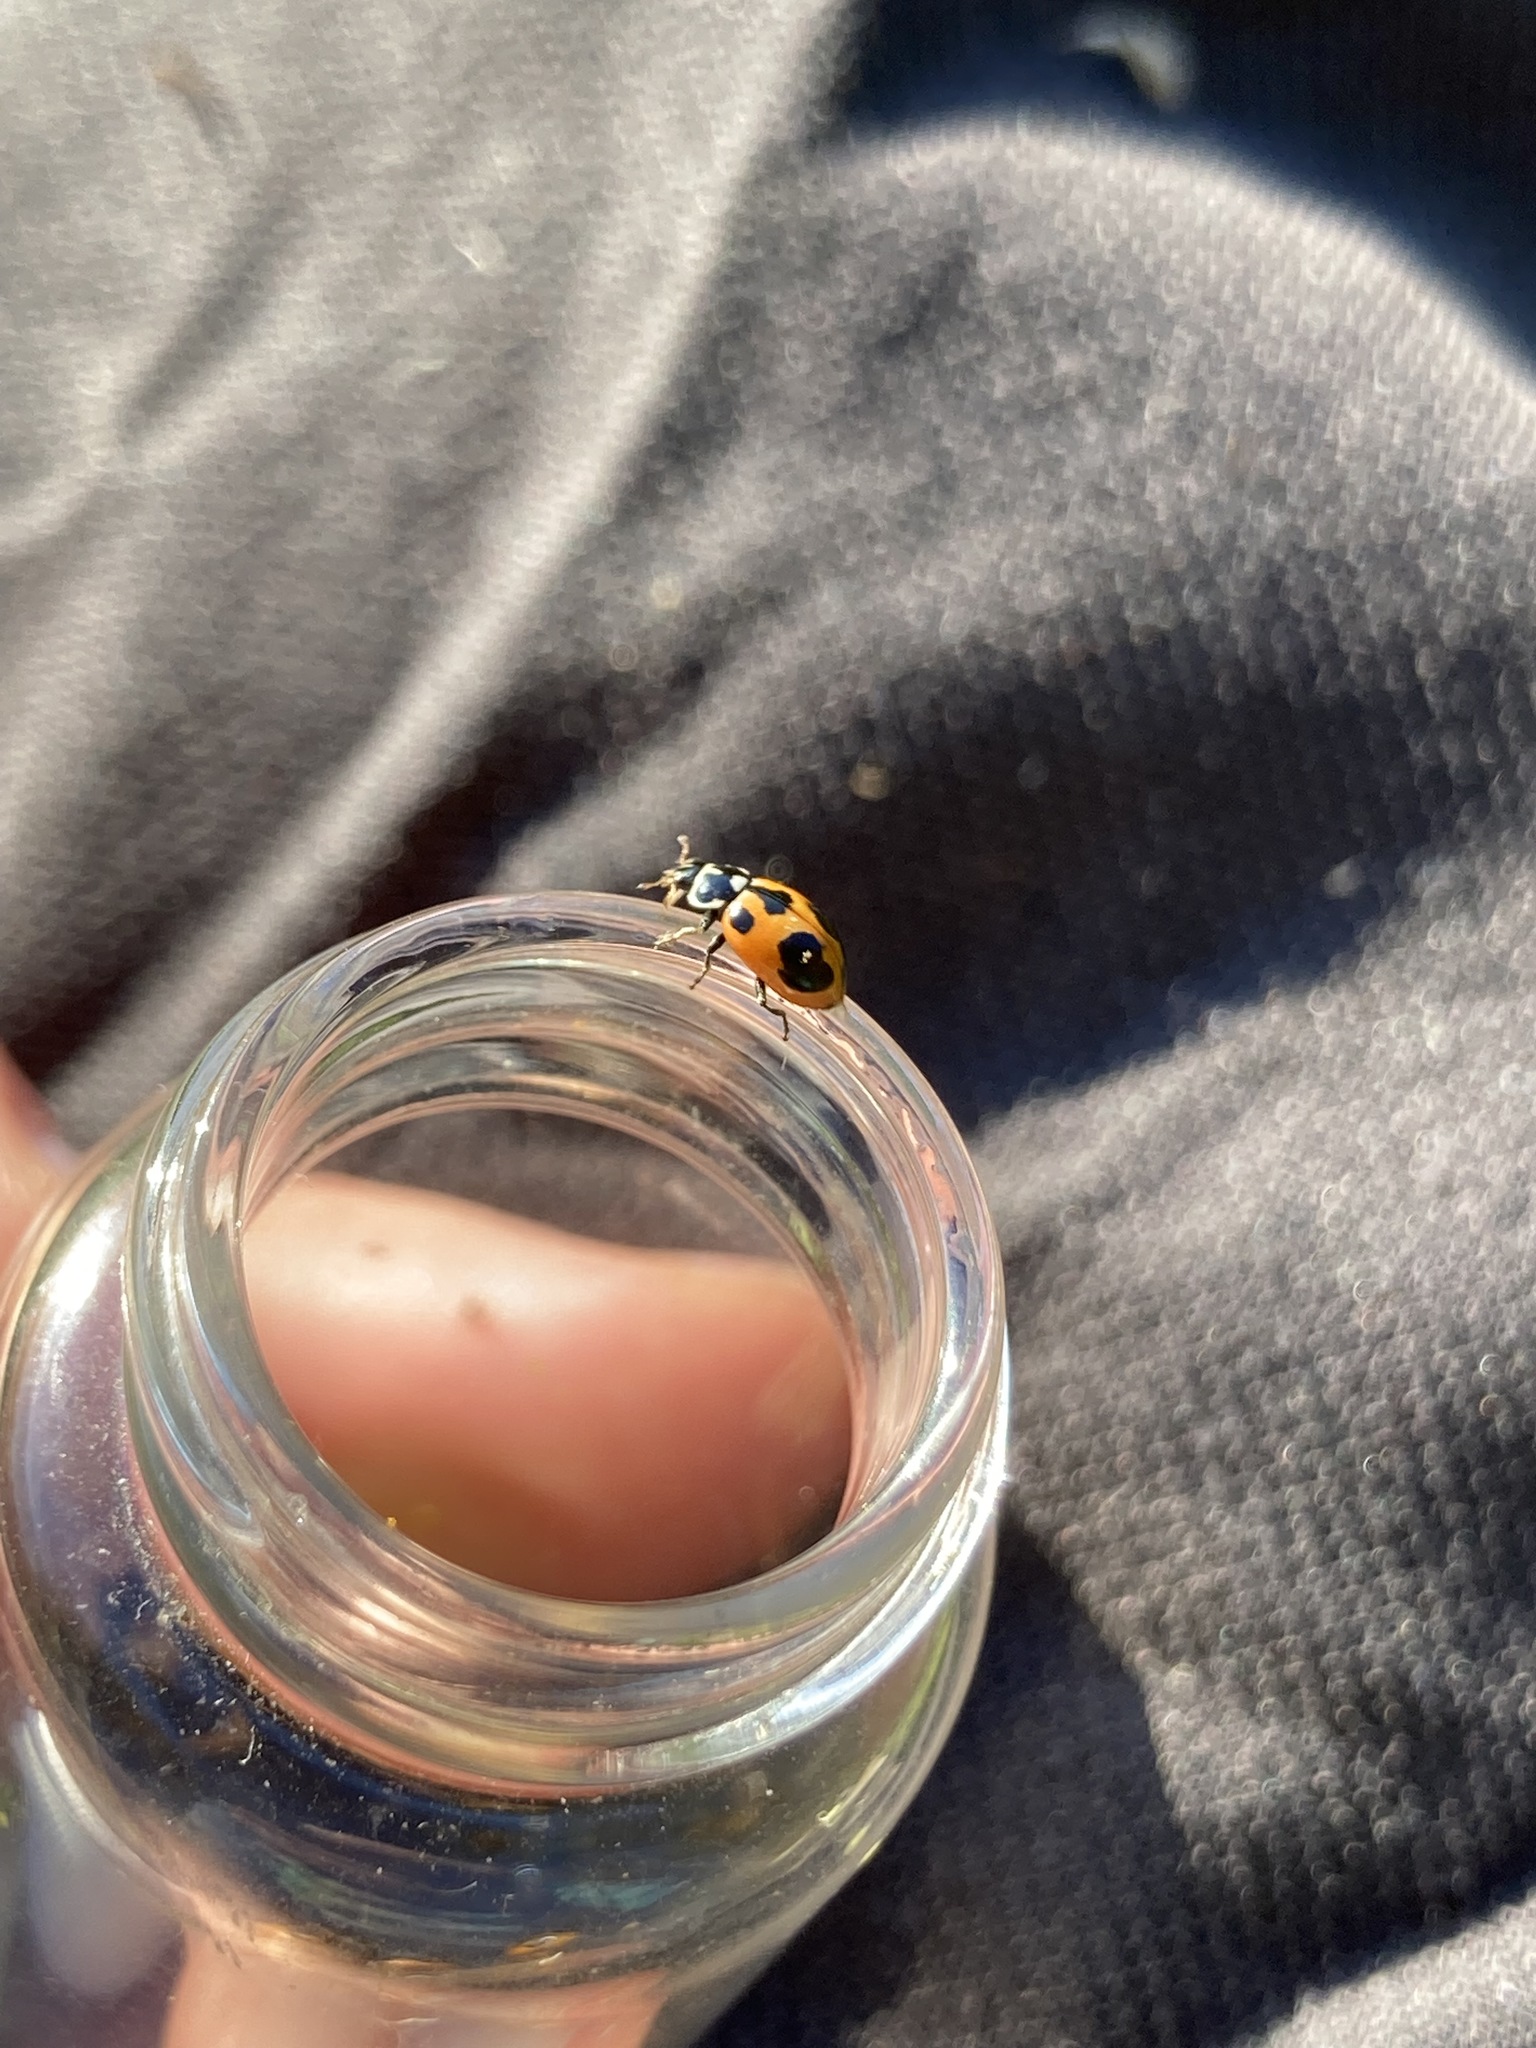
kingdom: Animalia
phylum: Arthropoda
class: Insecta
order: Coleoptera
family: Coccinellidae
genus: Hippodamia
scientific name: Hippodamia parenthesis
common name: Parenthesis lady beetle
